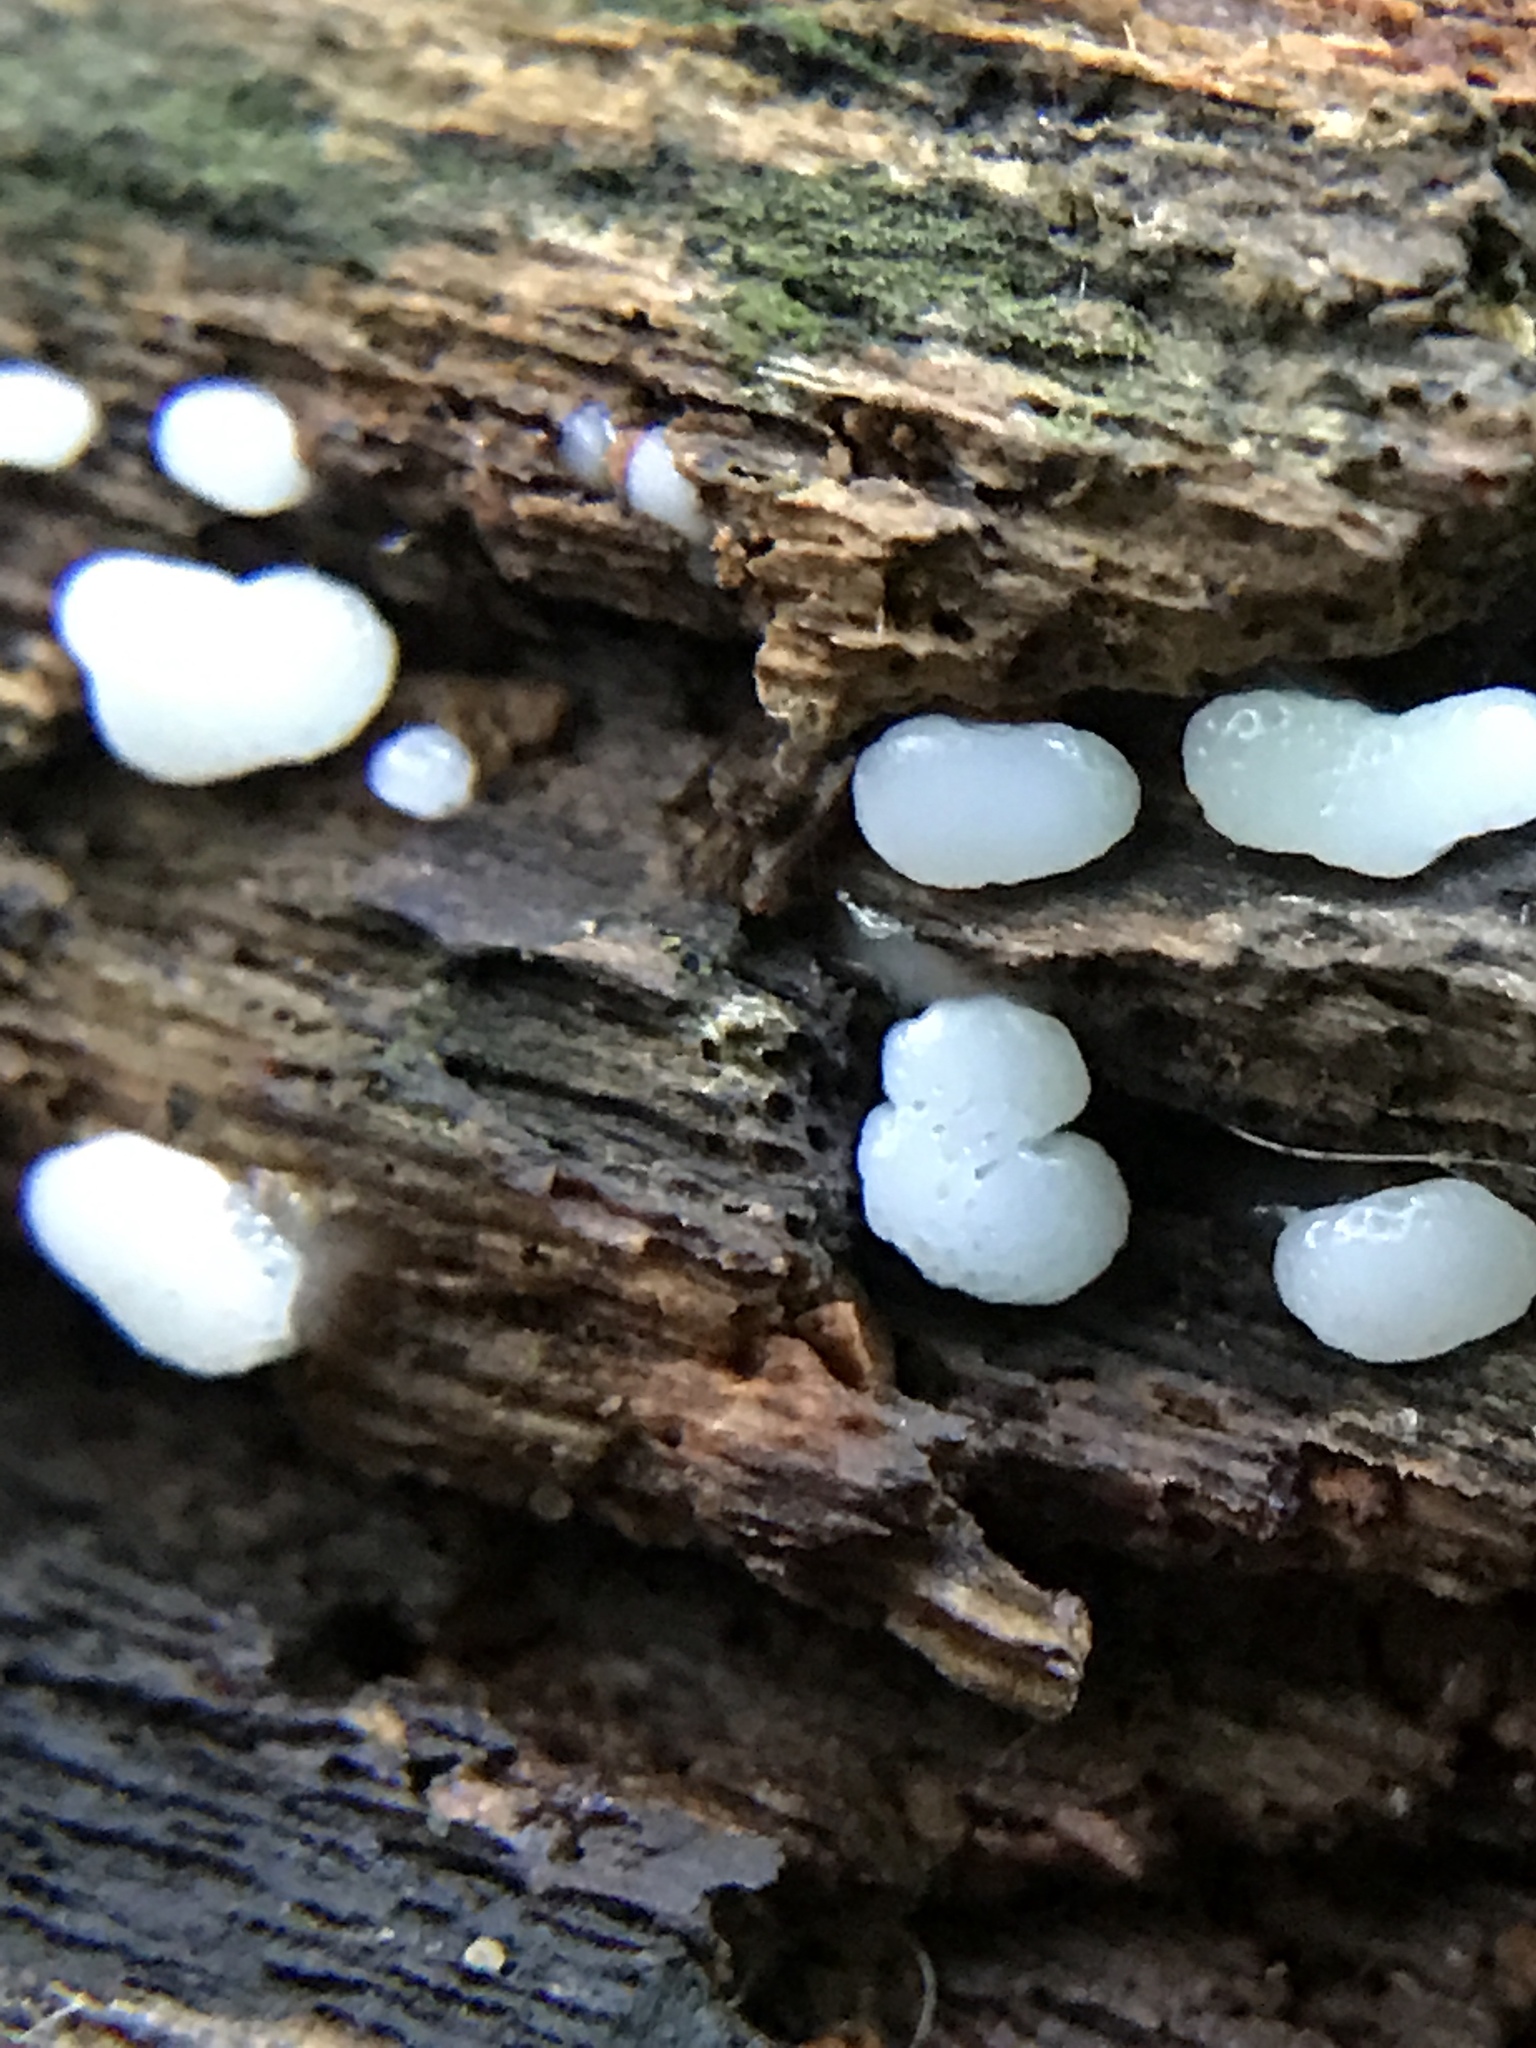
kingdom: Protozoa
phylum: Mycetozoa
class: Protosteliomycetes
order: Ceratiomyxales
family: Ceratiomyxaceae
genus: Ceratiomyxa
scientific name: Ceratiomyxa fruticulosa
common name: Honeycomb coral slime mold
